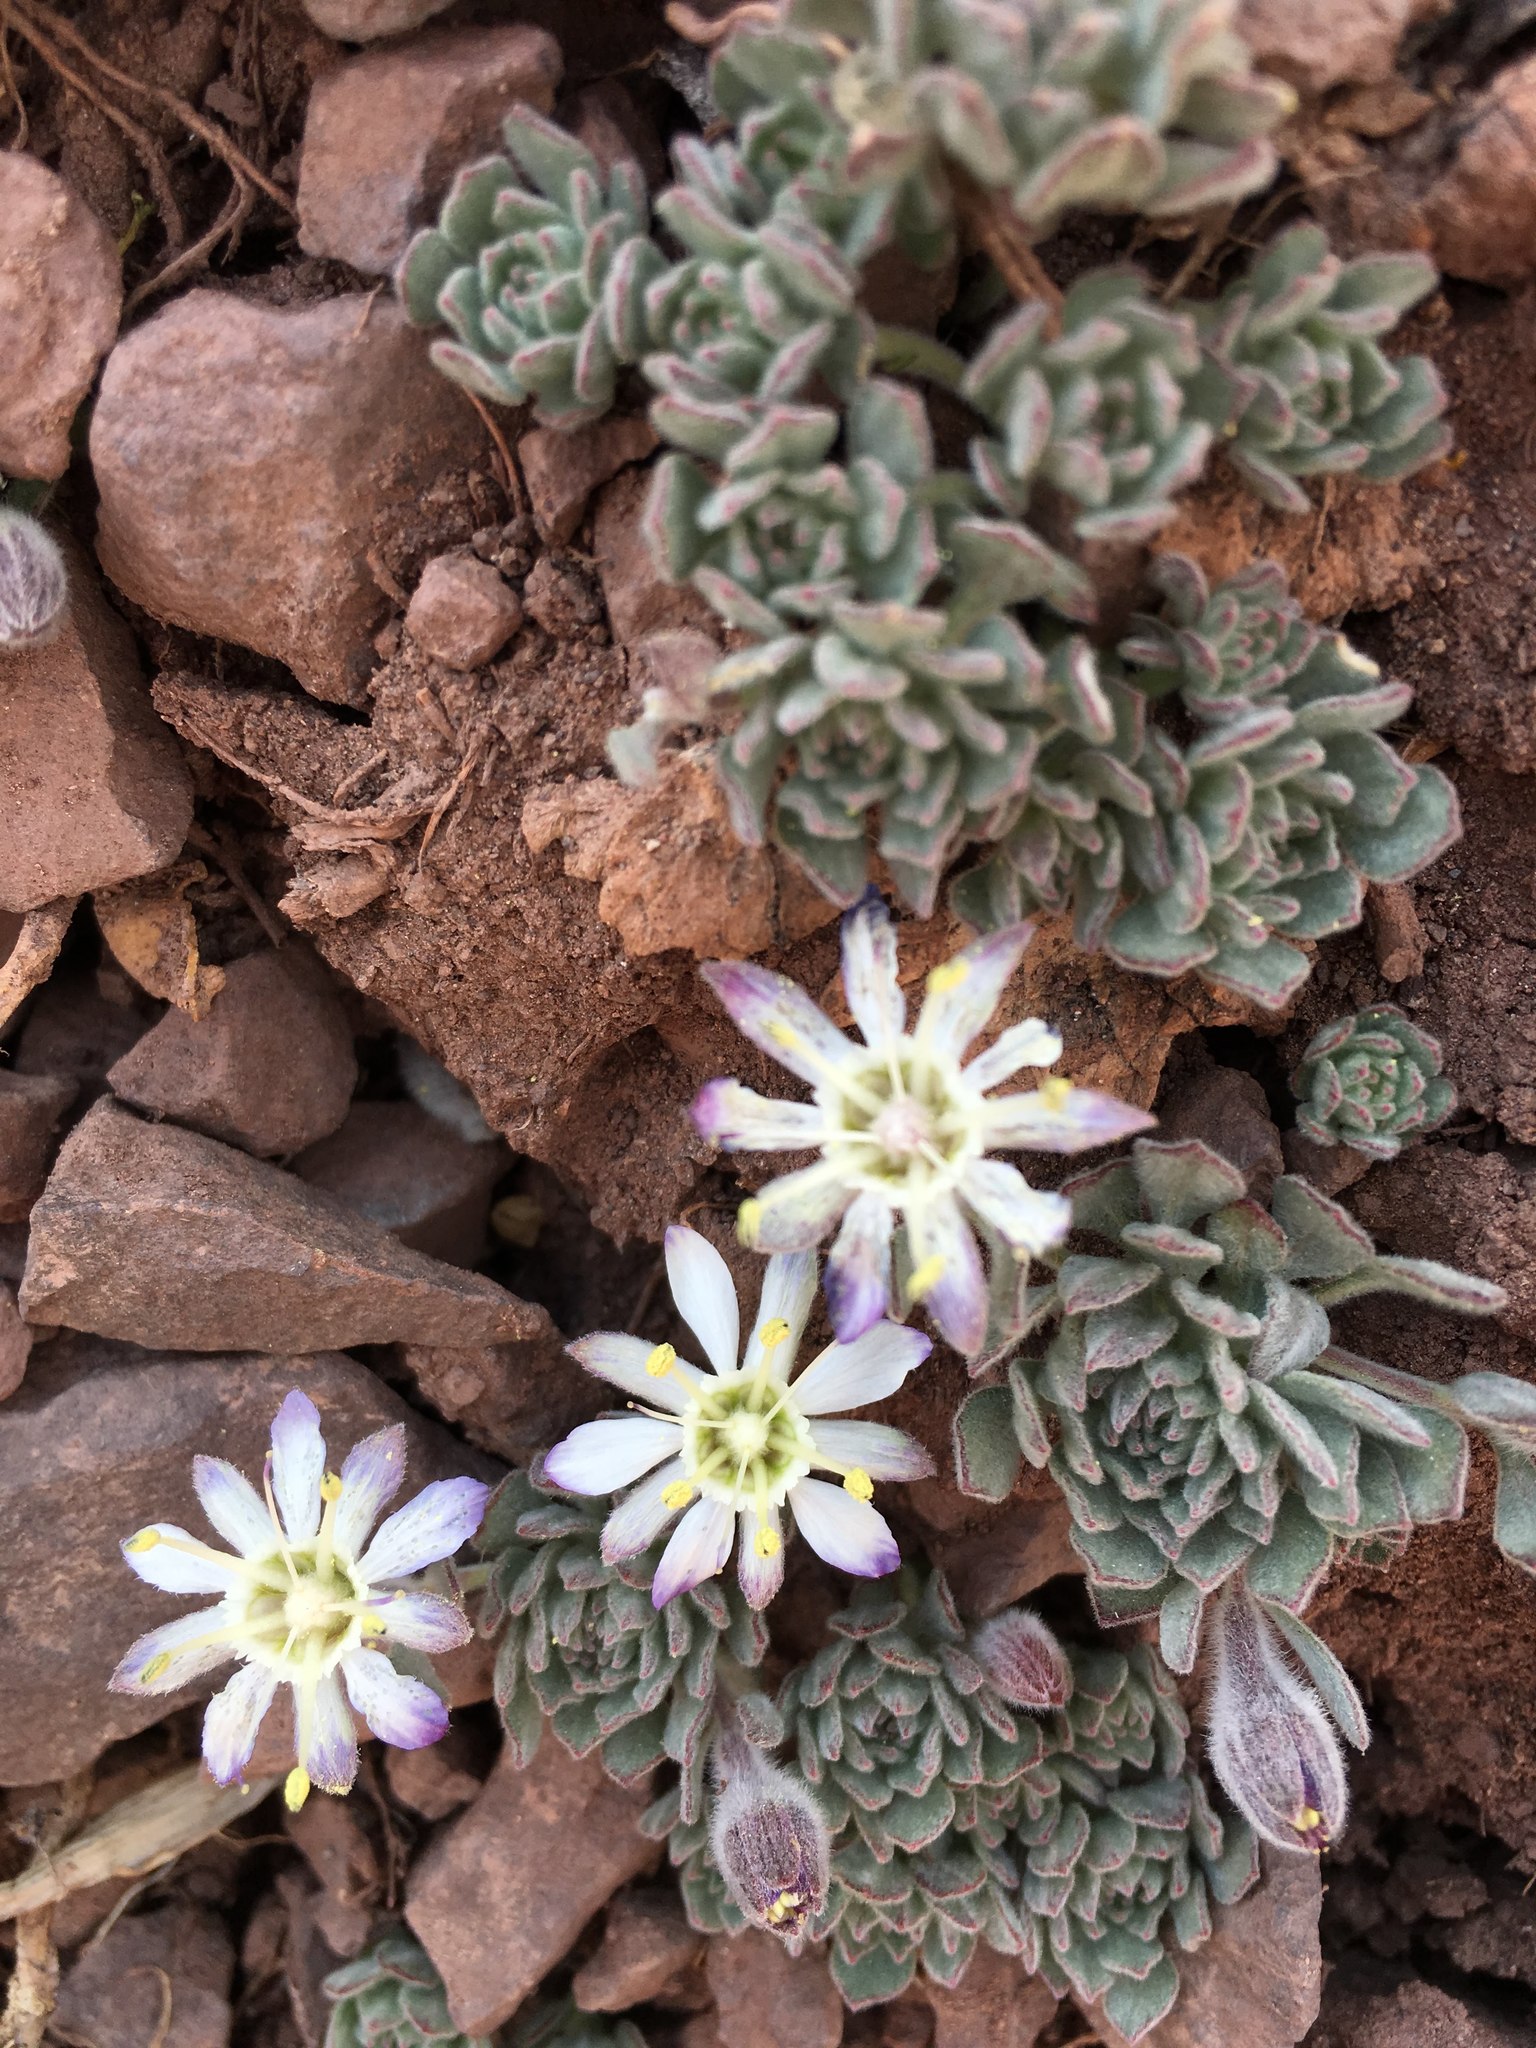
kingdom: Plantae
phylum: Tracheophyta
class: Magnoliopsida
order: Malpighiales
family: Malesherbiaceae
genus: Malesherbia
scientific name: Malesherbia lactea
